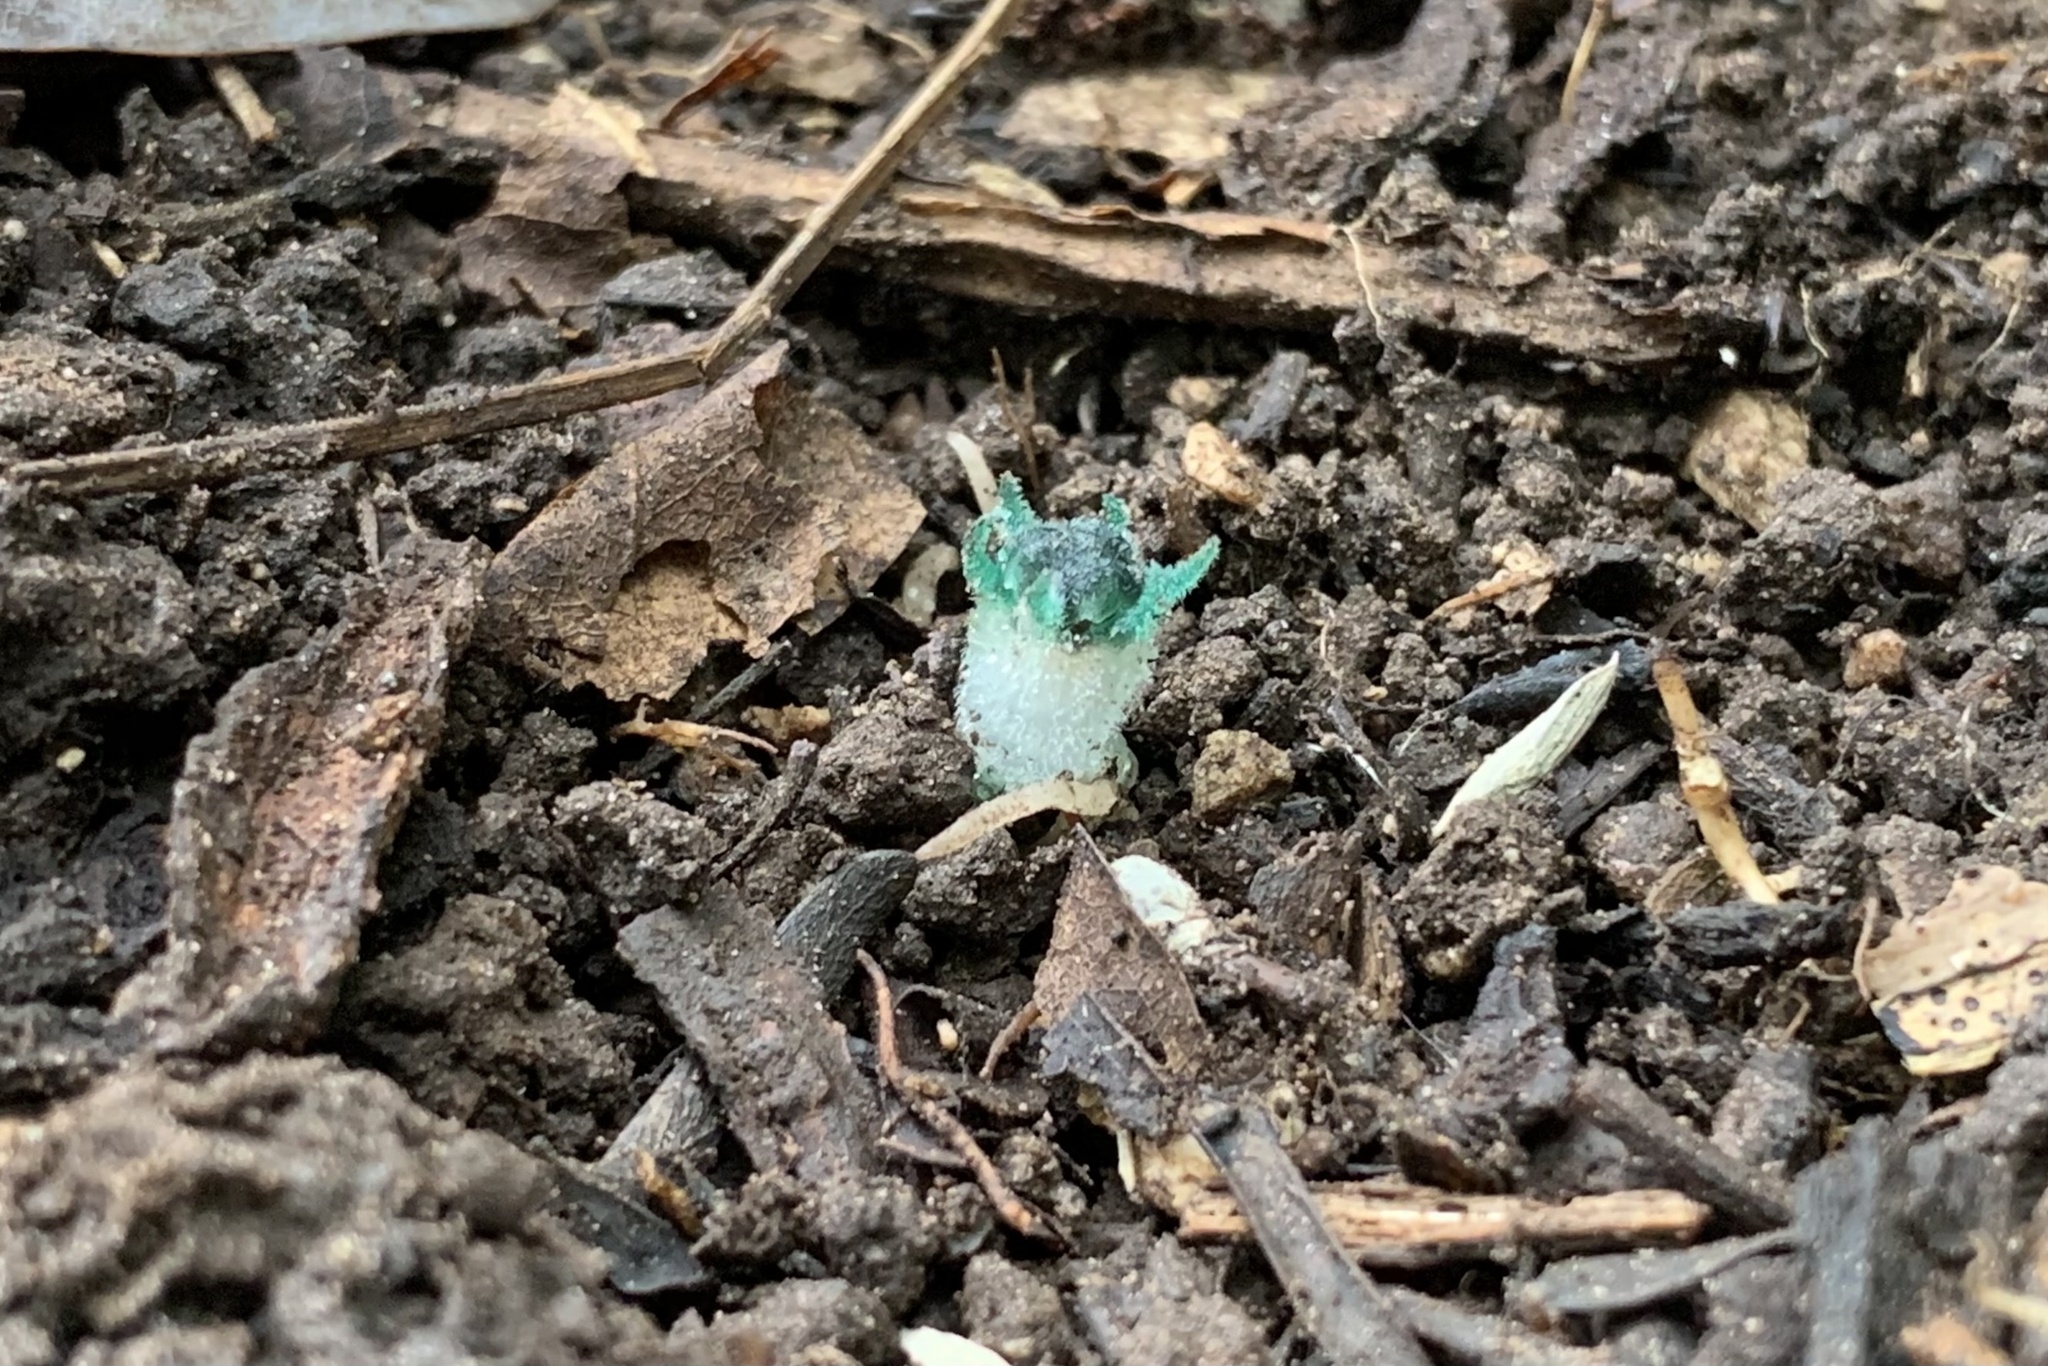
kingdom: Plantae
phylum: Tracheophyta
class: Liliopsida
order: Dioscoreales
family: Burmanniaceae
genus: Thismia
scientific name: Thismia thaithongiana
